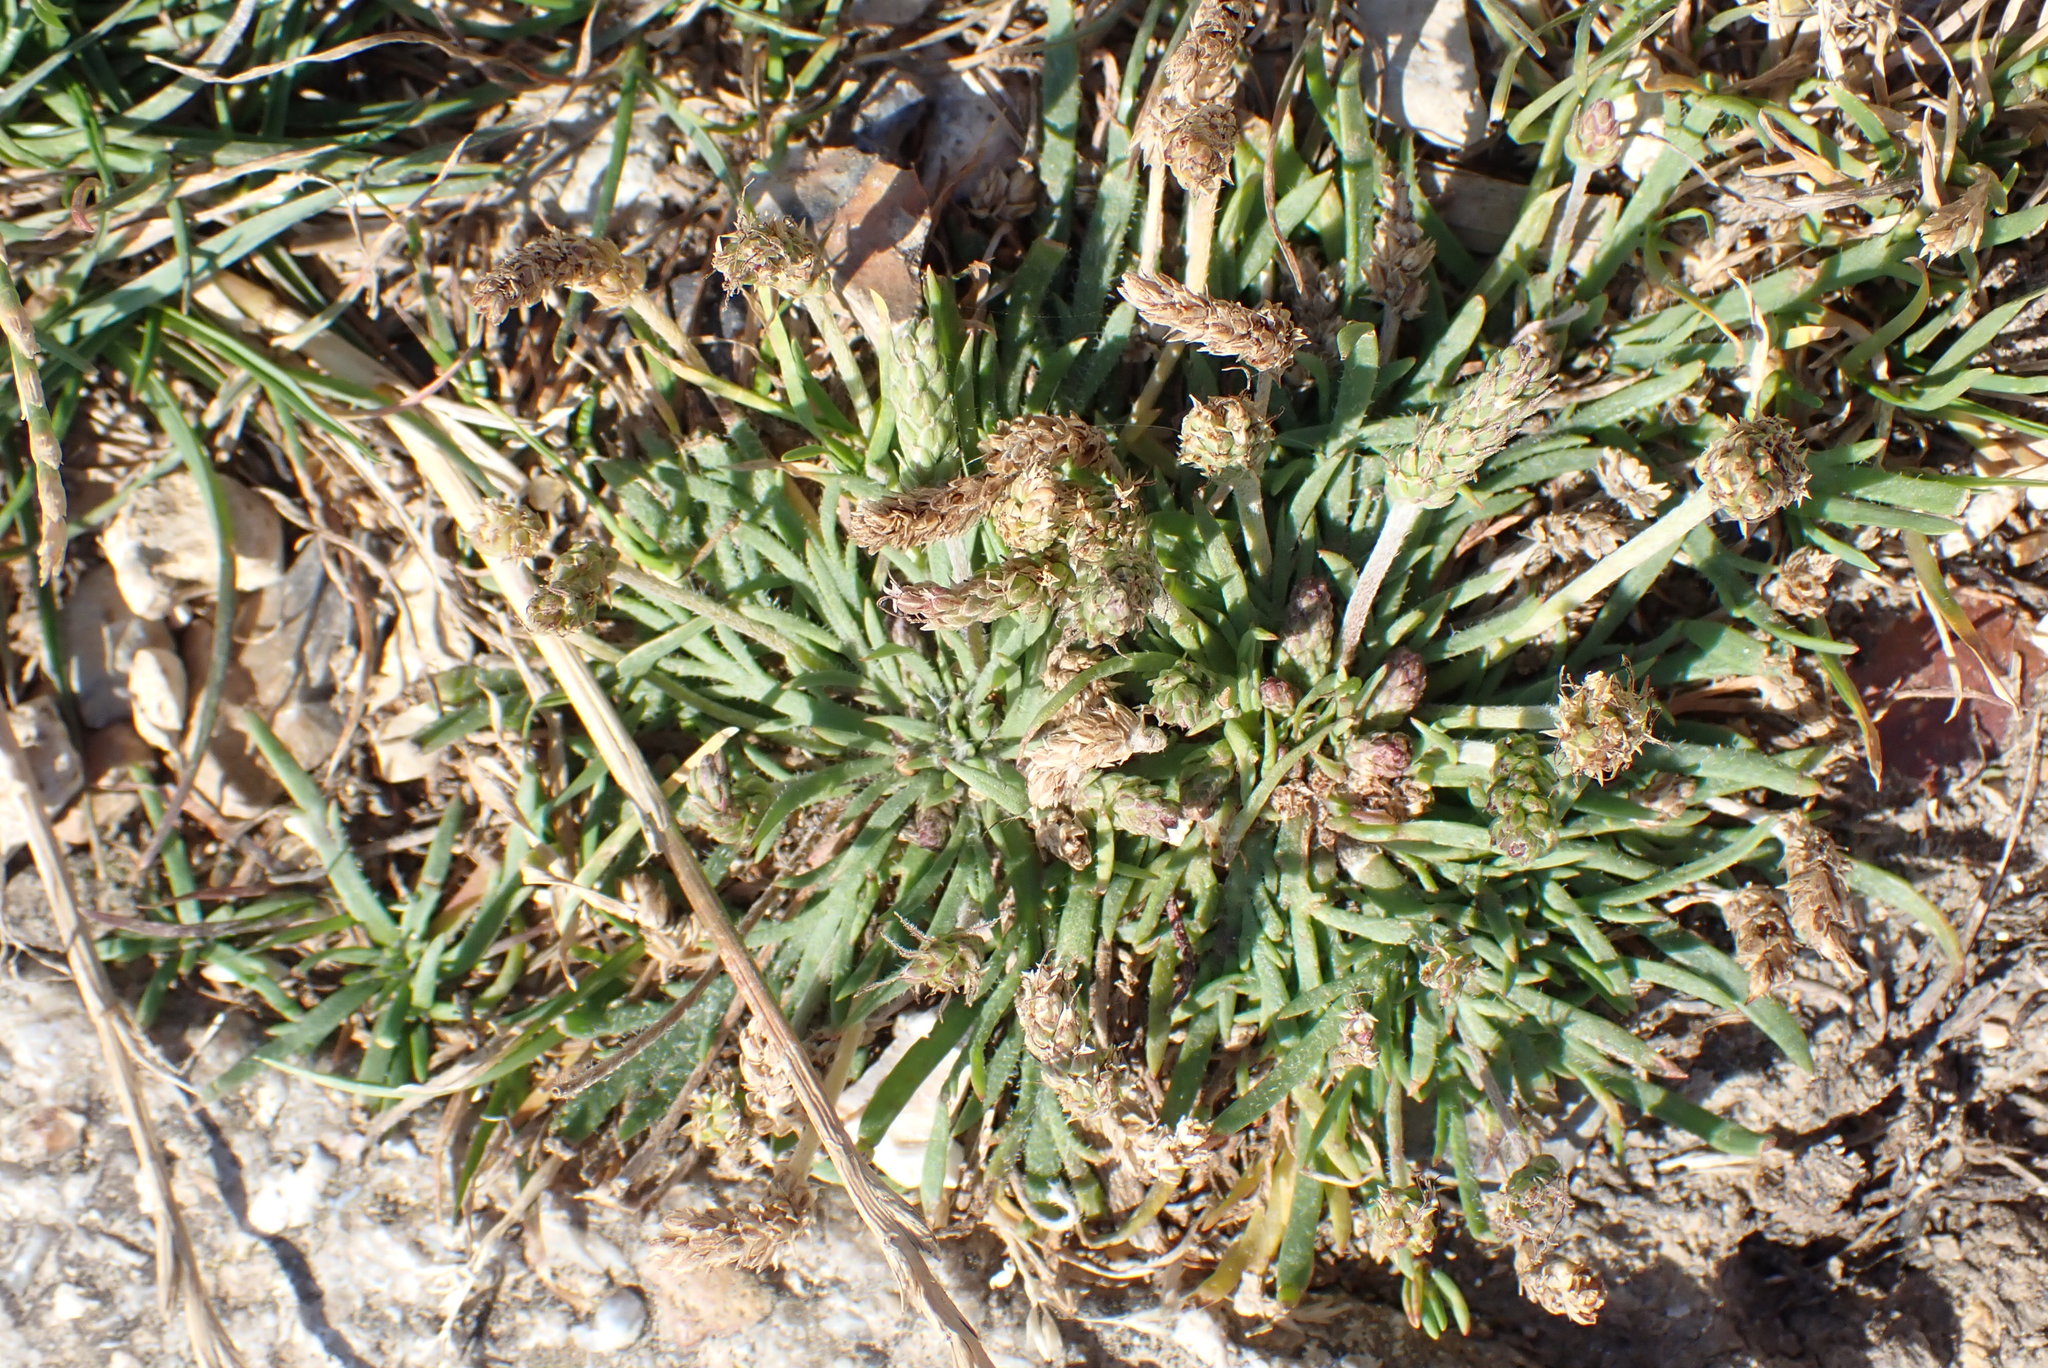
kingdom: Plantae
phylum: Tracheophyta
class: Magnoliopsida
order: Lamiales
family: Plantaginaceae
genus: Plantago
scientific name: Plantago coronopus
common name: Buck's-horn plantain
